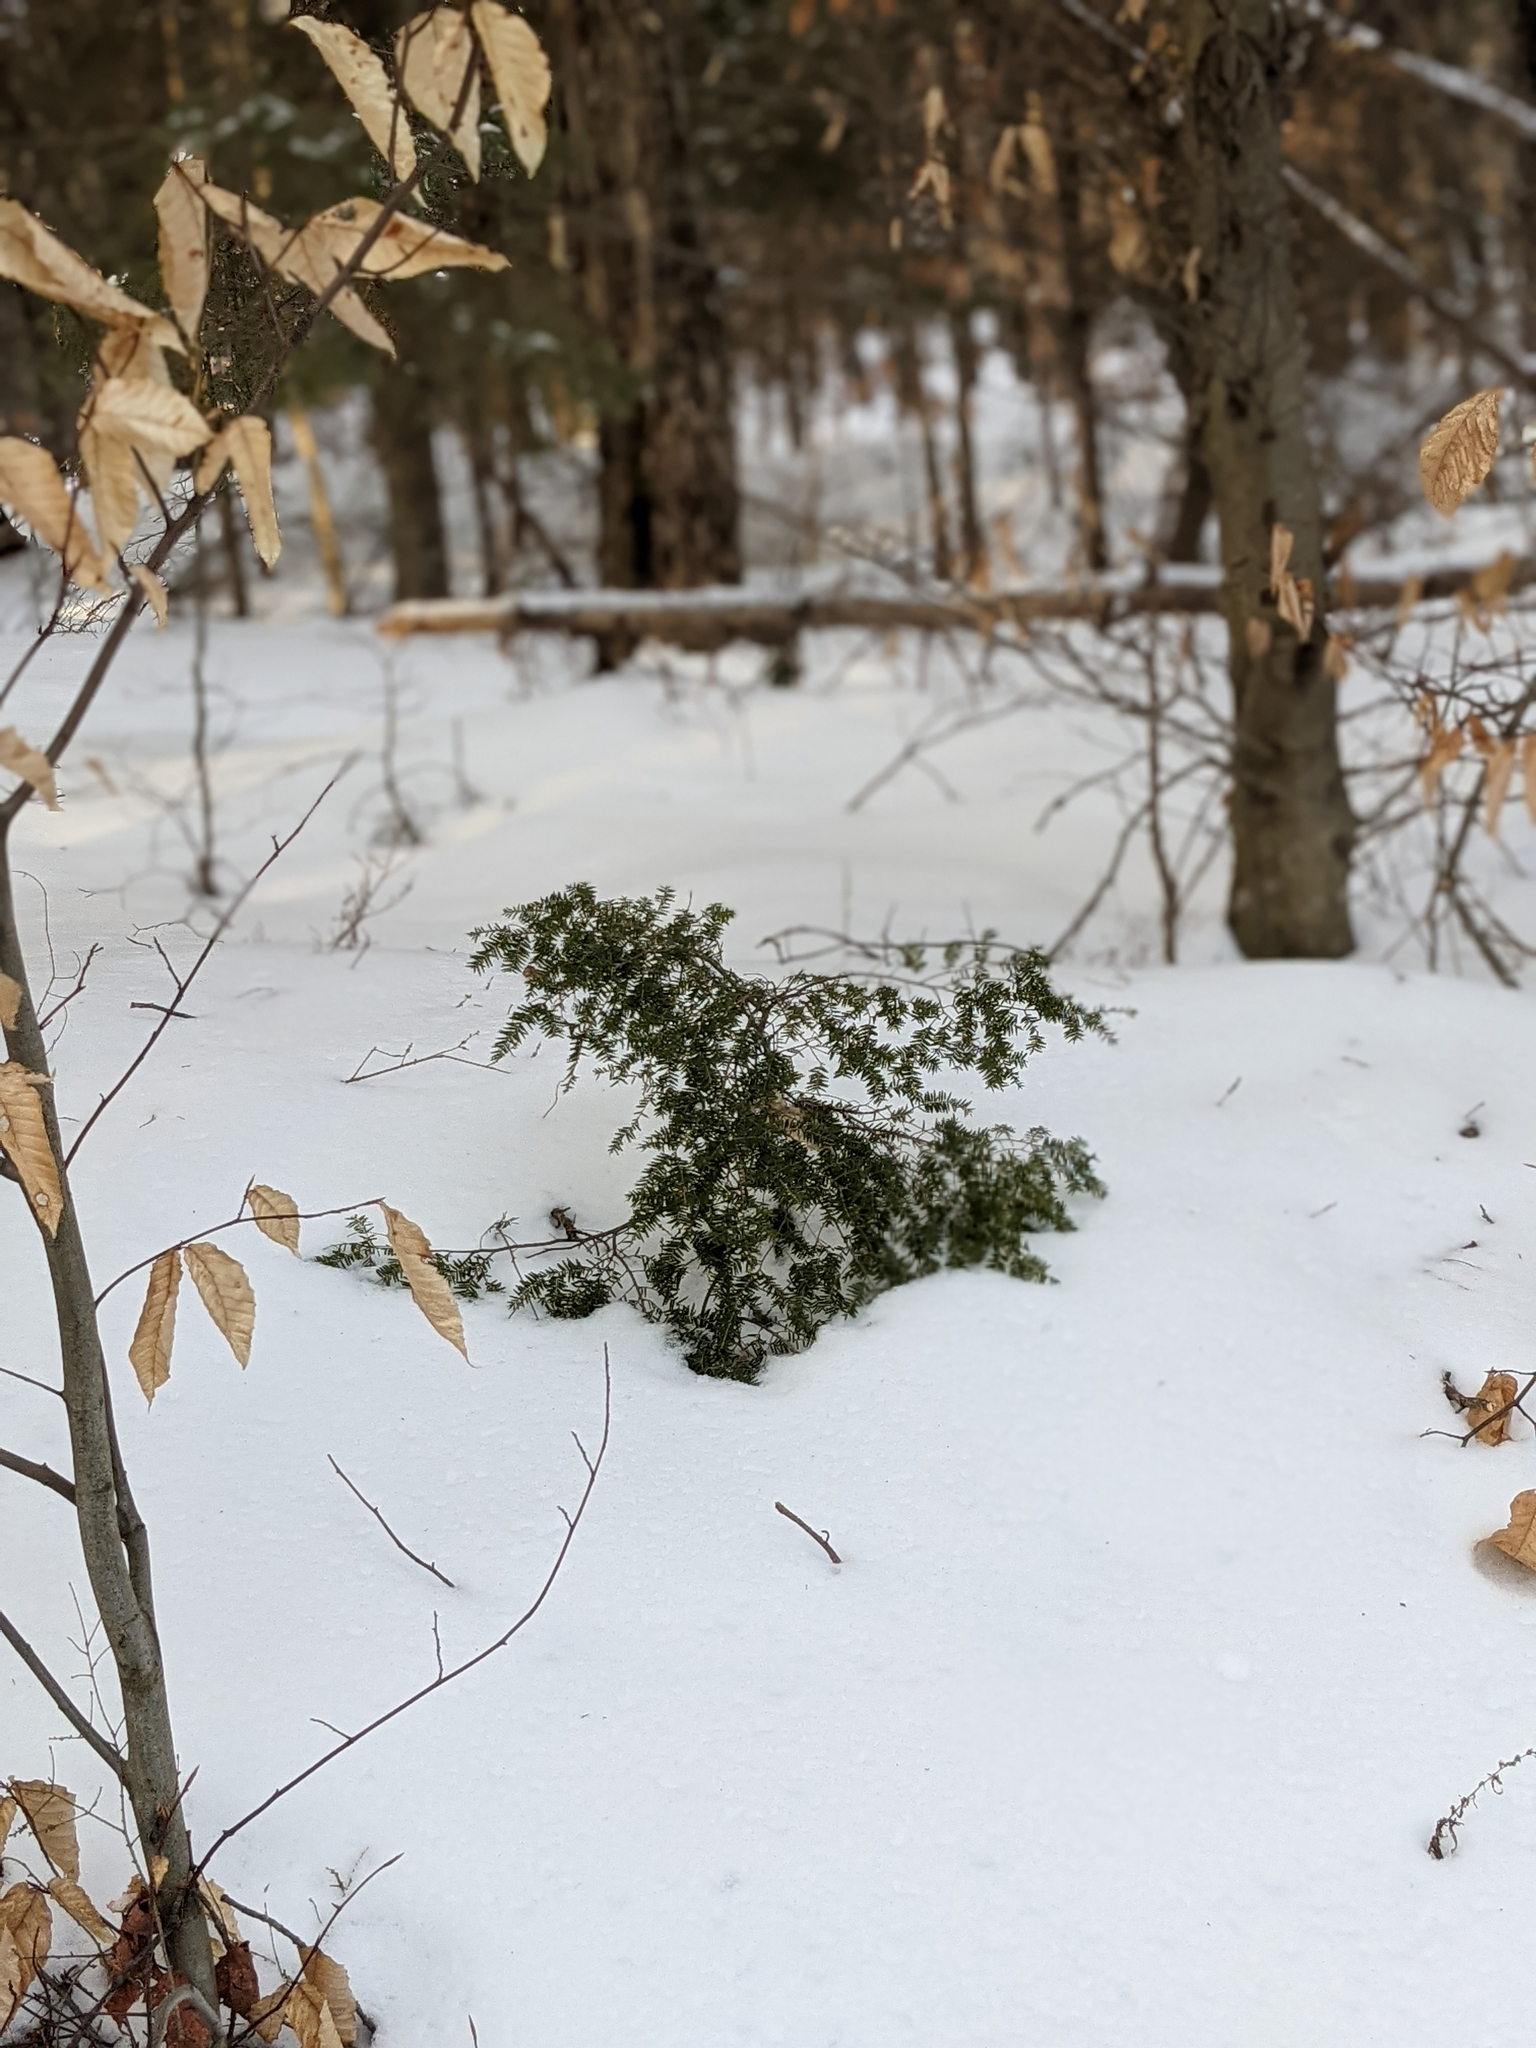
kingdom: Plantae
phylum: Tracheophyta
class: Pinopsida
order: Pinales
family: Pinaceae
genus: Tsuga
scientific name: Tsuga canadensis
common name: Eastern hemlock
